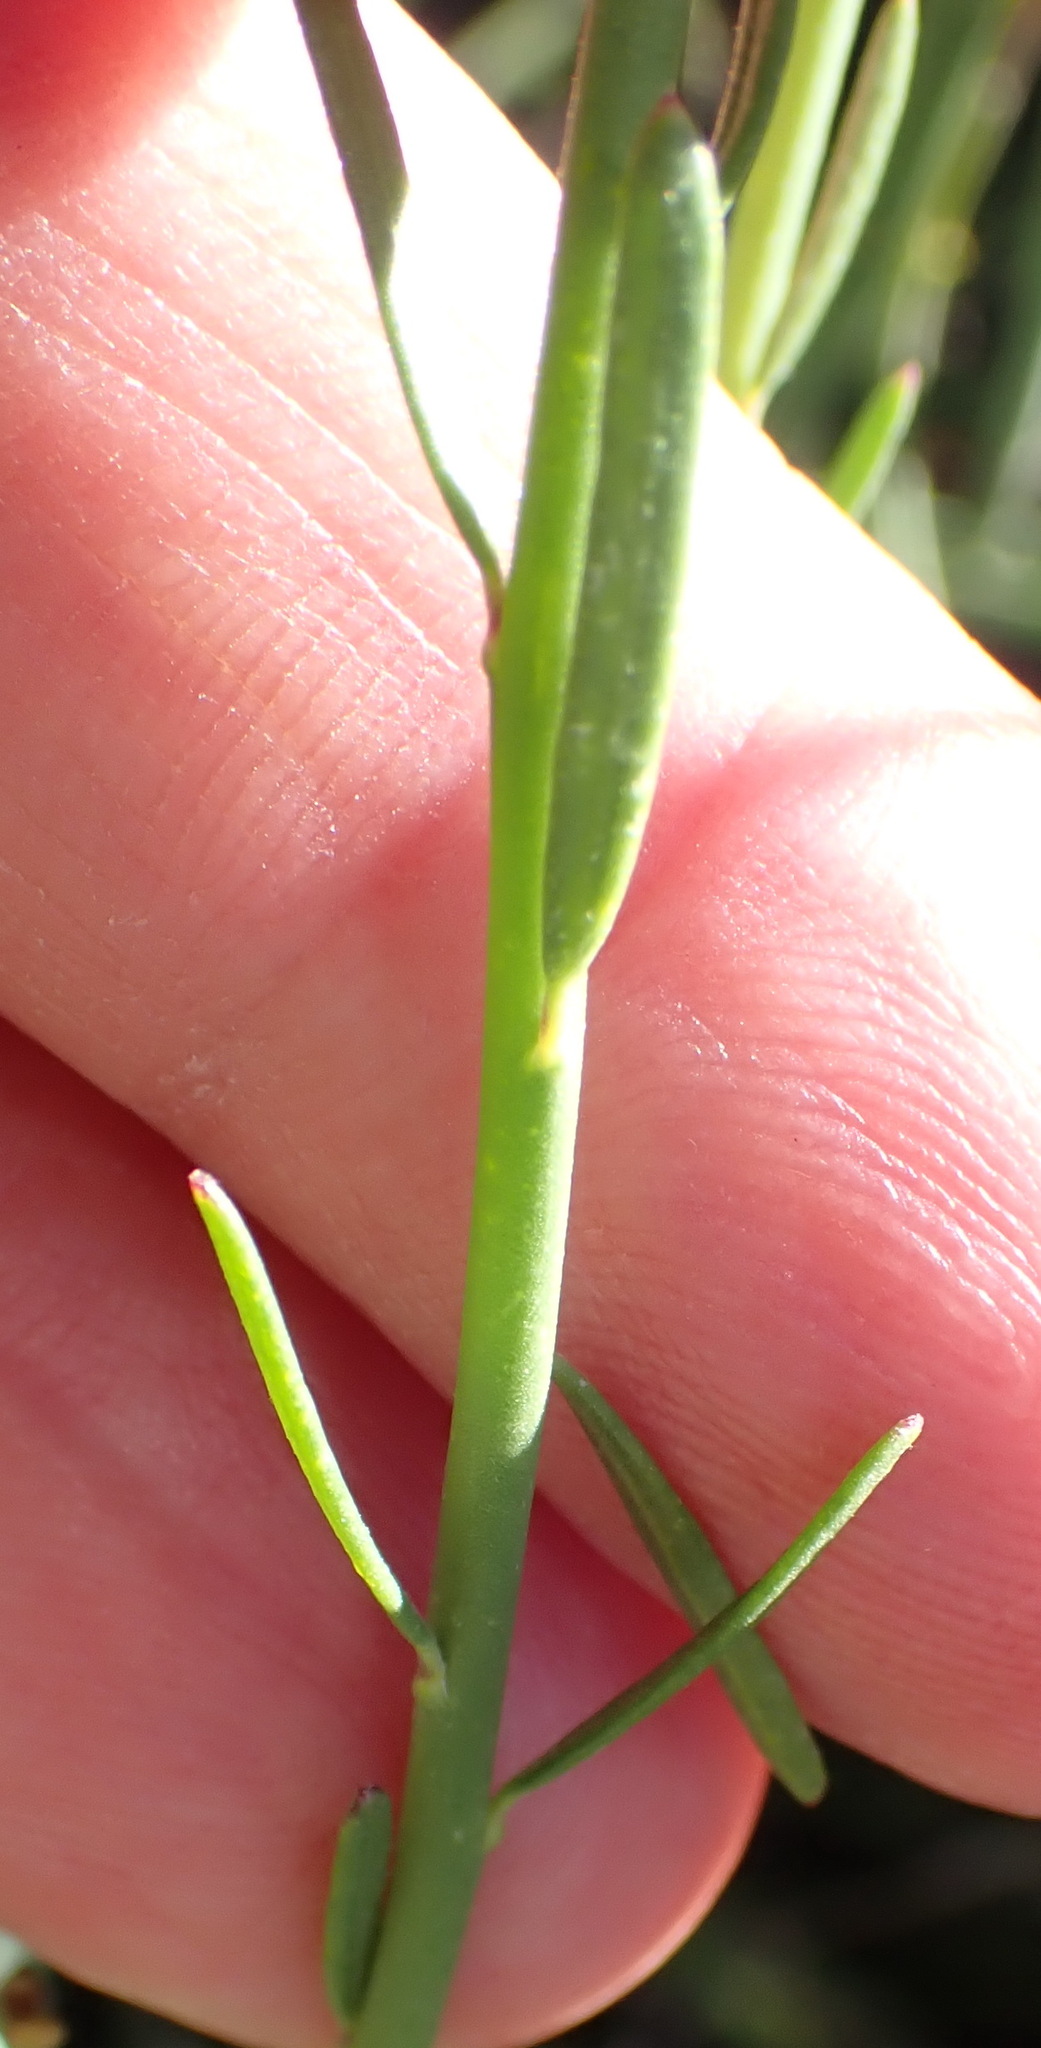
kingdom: Plantae
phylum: Tracheophyta
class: Magnoliopsida
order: Fabales
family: Polygalaceae
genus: Polygala
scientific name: Polygala bowkerae
